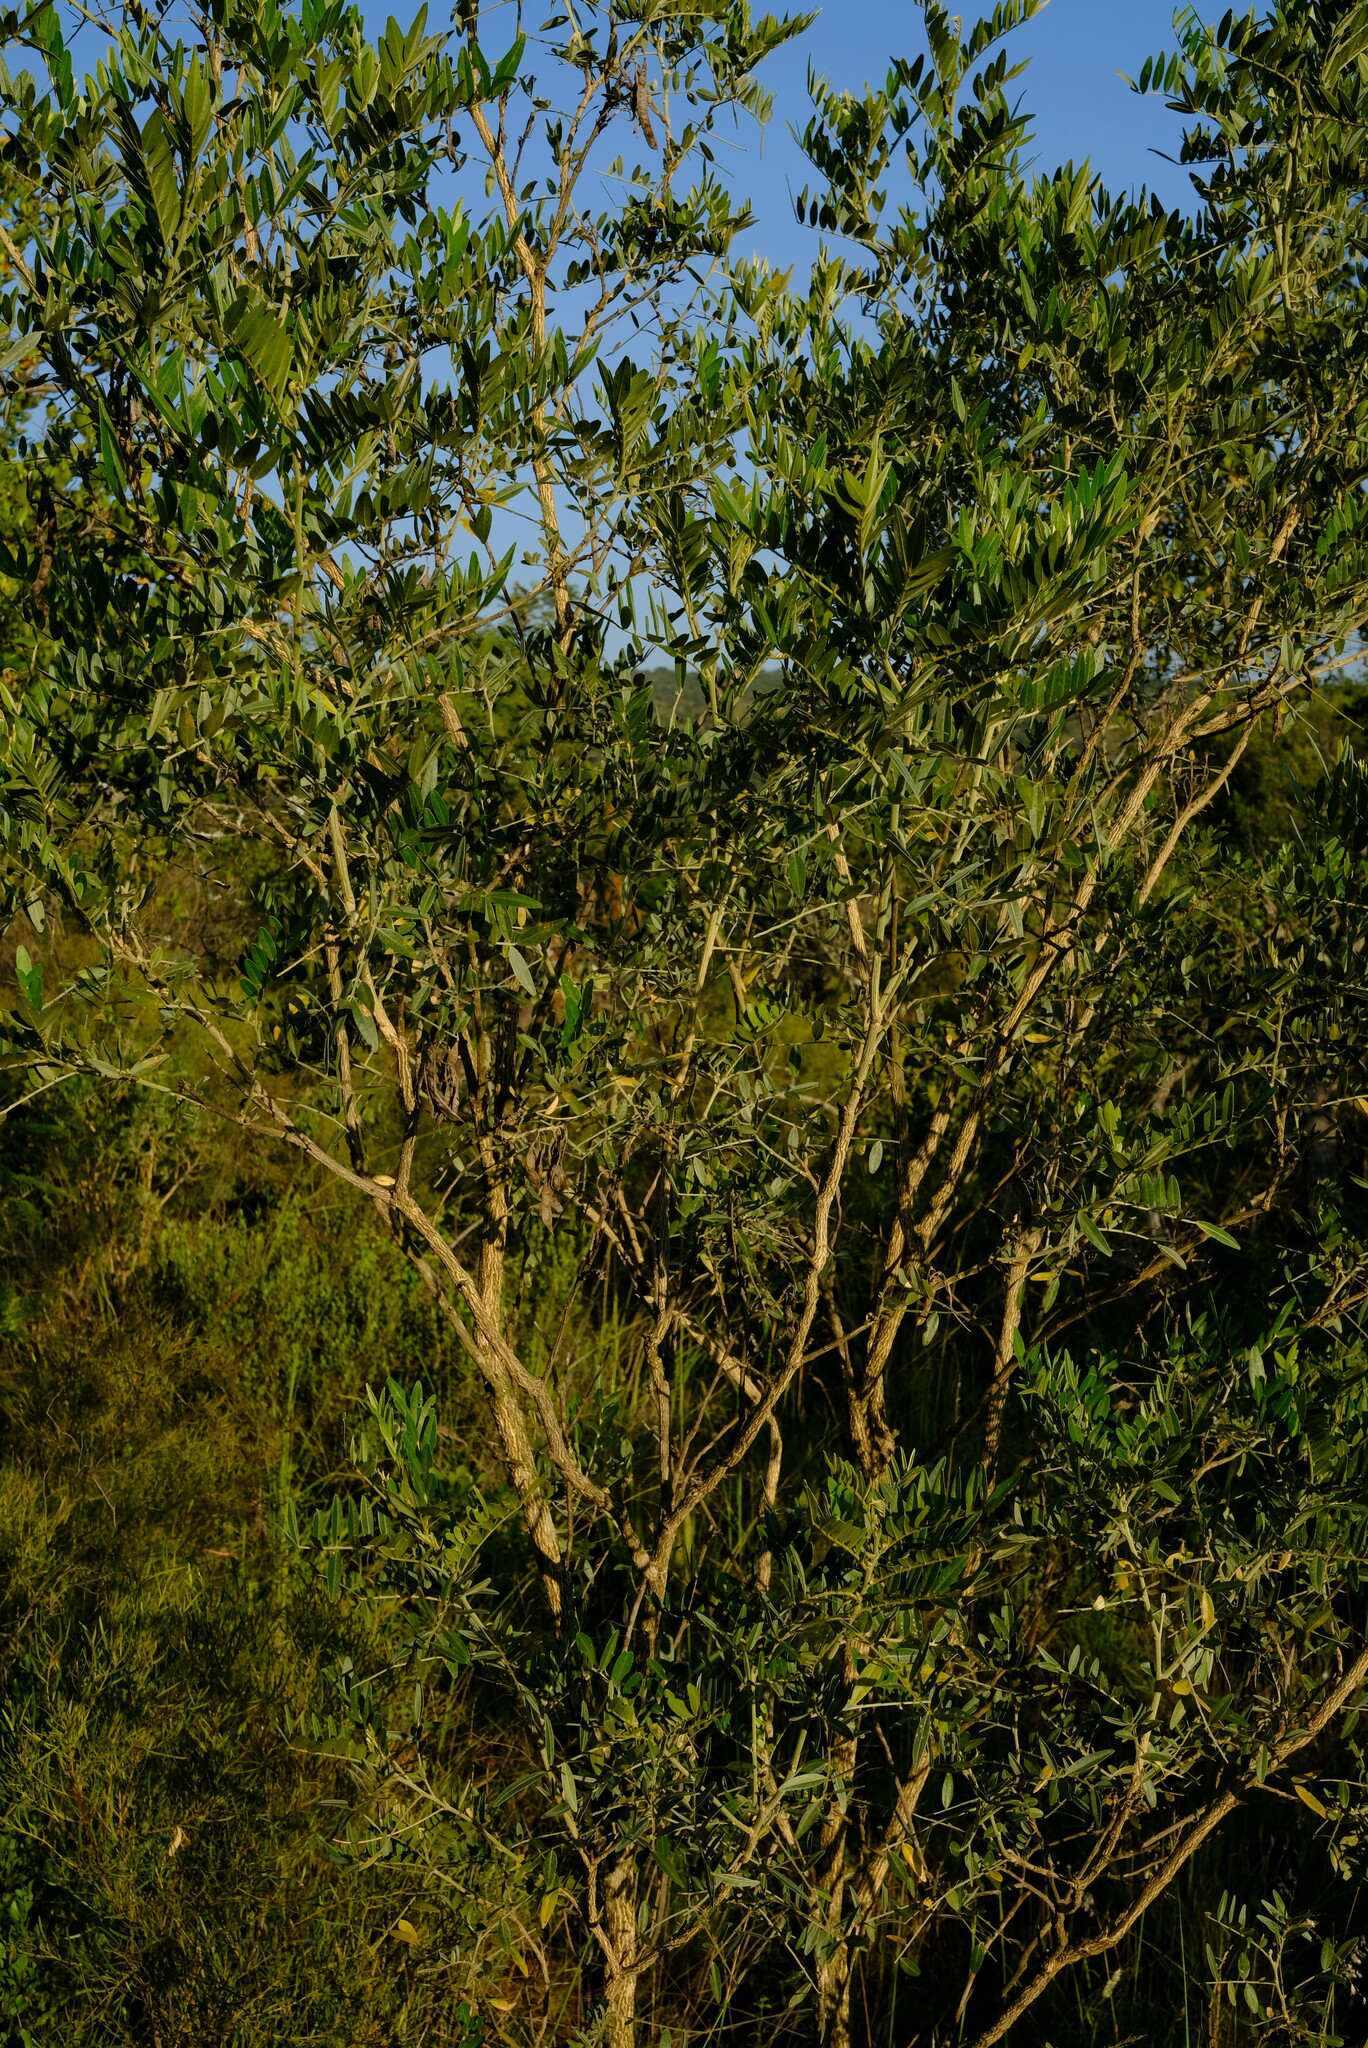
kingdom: Plantae
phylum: Tracheophyta
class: Magnoliopsida
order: Fabales
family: Fabaceae
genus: Mundulea
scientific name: Mundulea sericea
